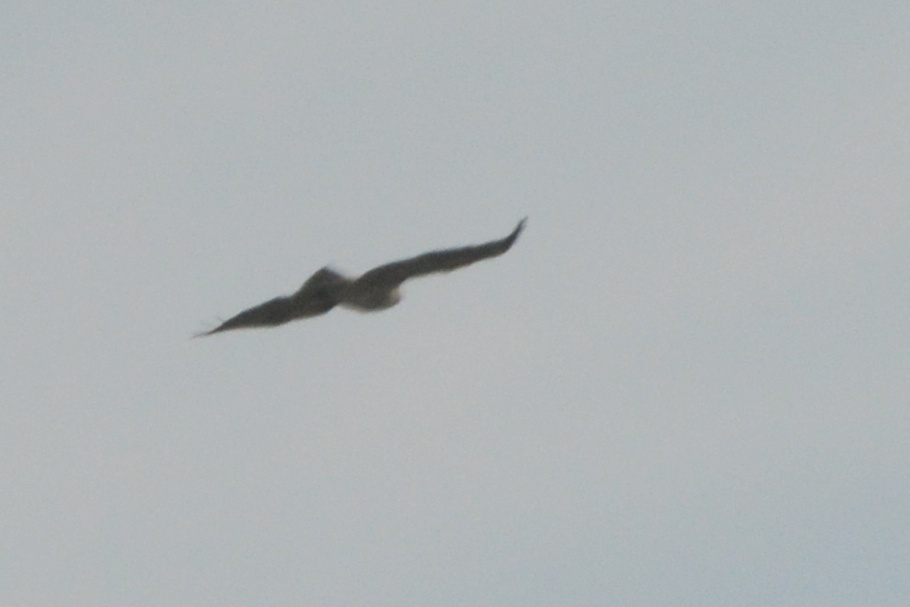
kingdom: Animalia
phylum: Chordata
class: Aves
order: Accipitriformes
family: Accipitridae
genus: Buteo
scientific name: Buteo jamaicensis
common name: Red-tailed hawk
